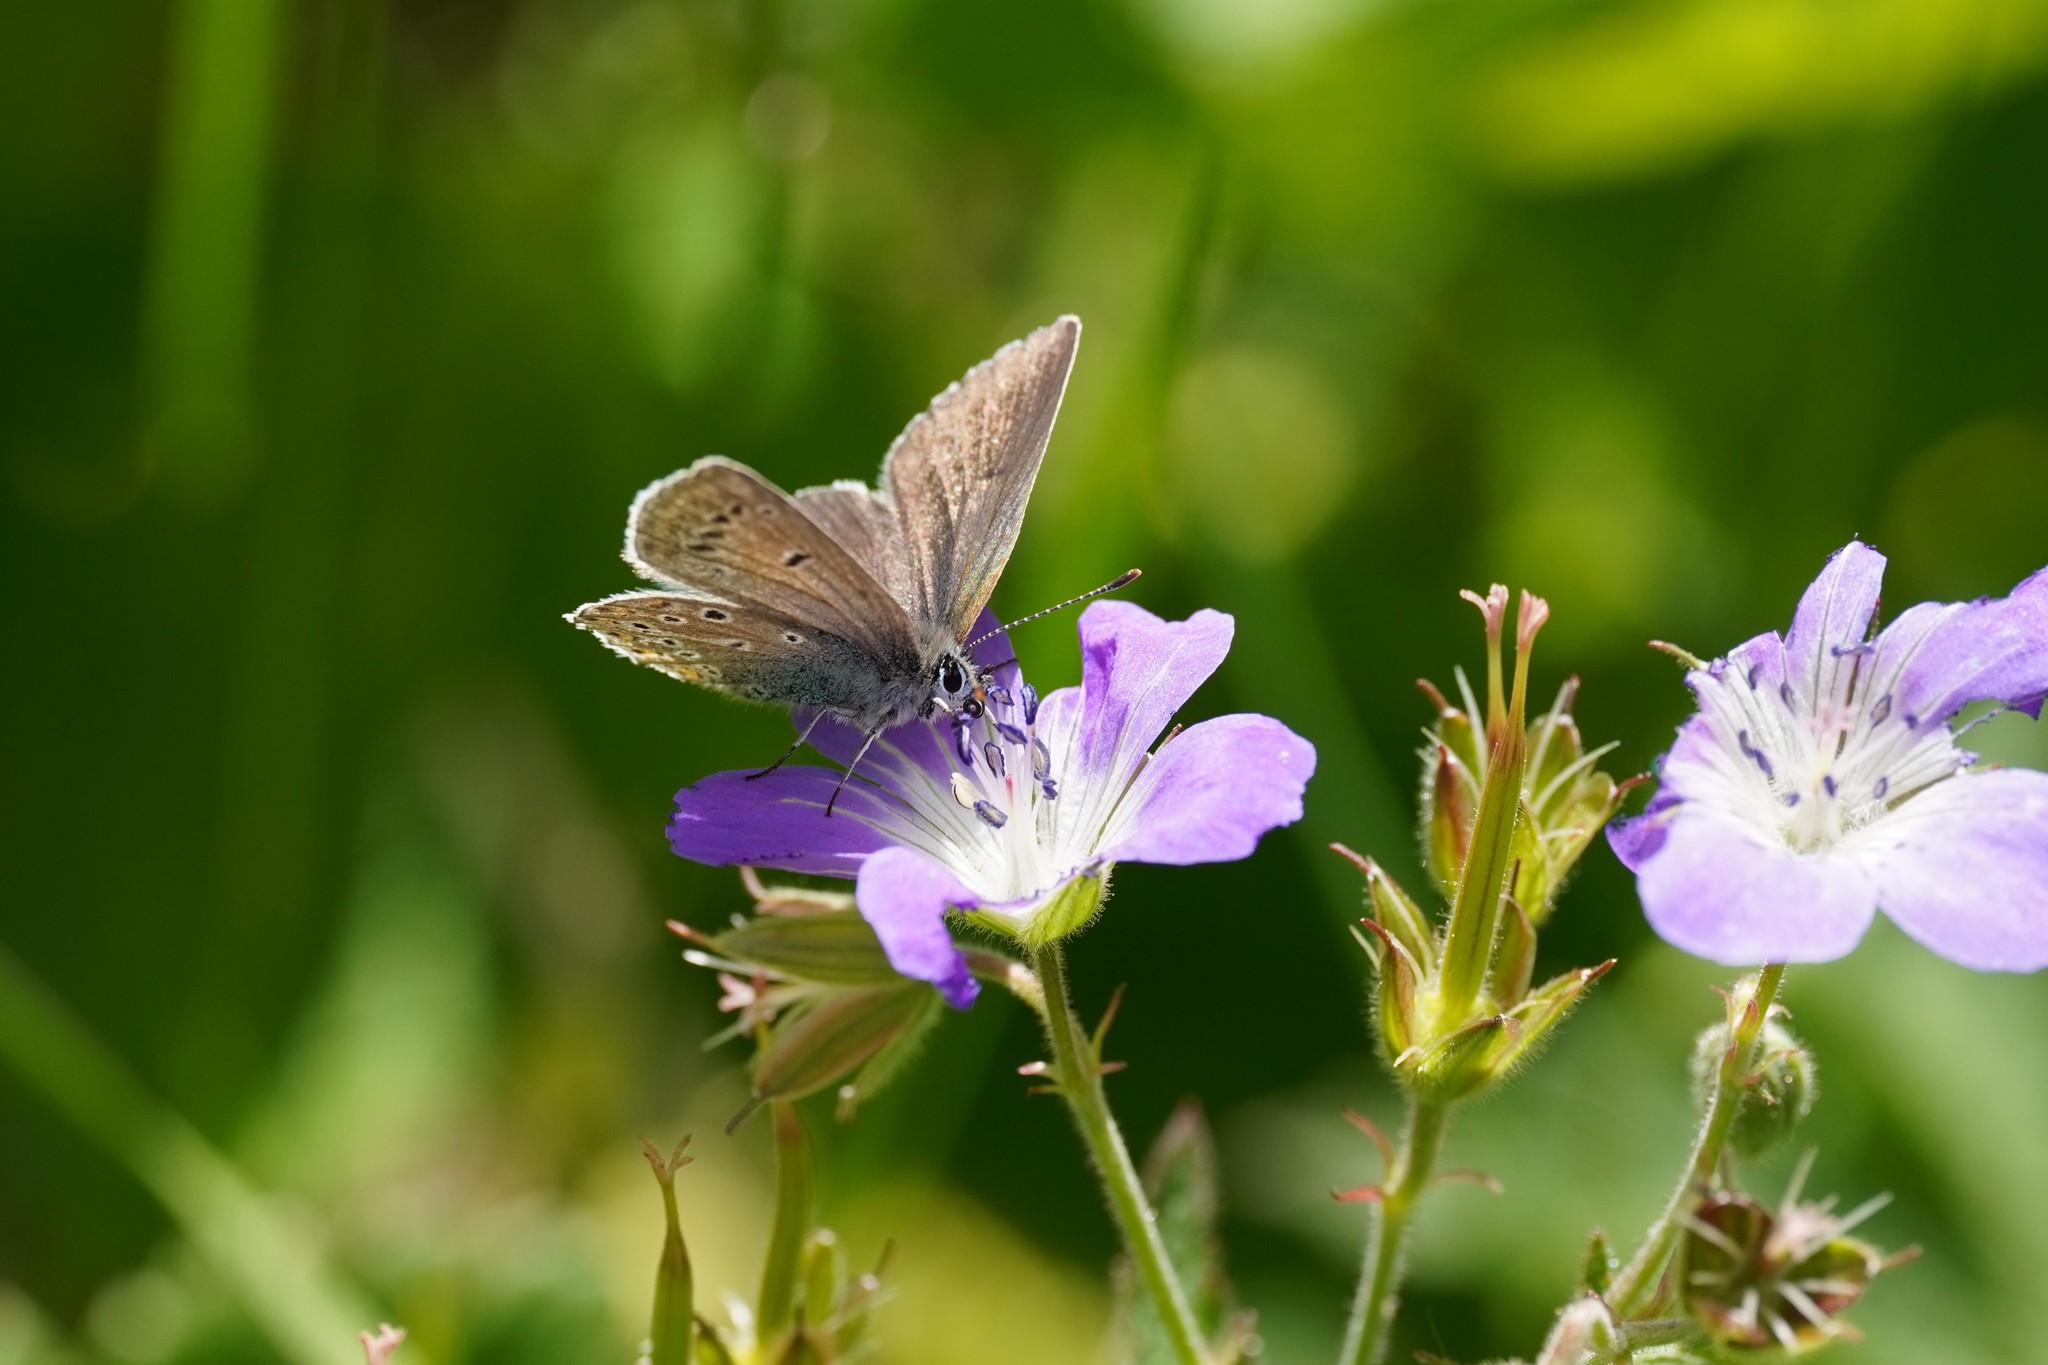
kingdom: Animalia
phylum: Arthropoda
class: Insecta
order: Lepidoptera
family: Lycaenidae
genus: Eumedonia
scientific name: Eumedonia eumedon
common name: Geranium argus
